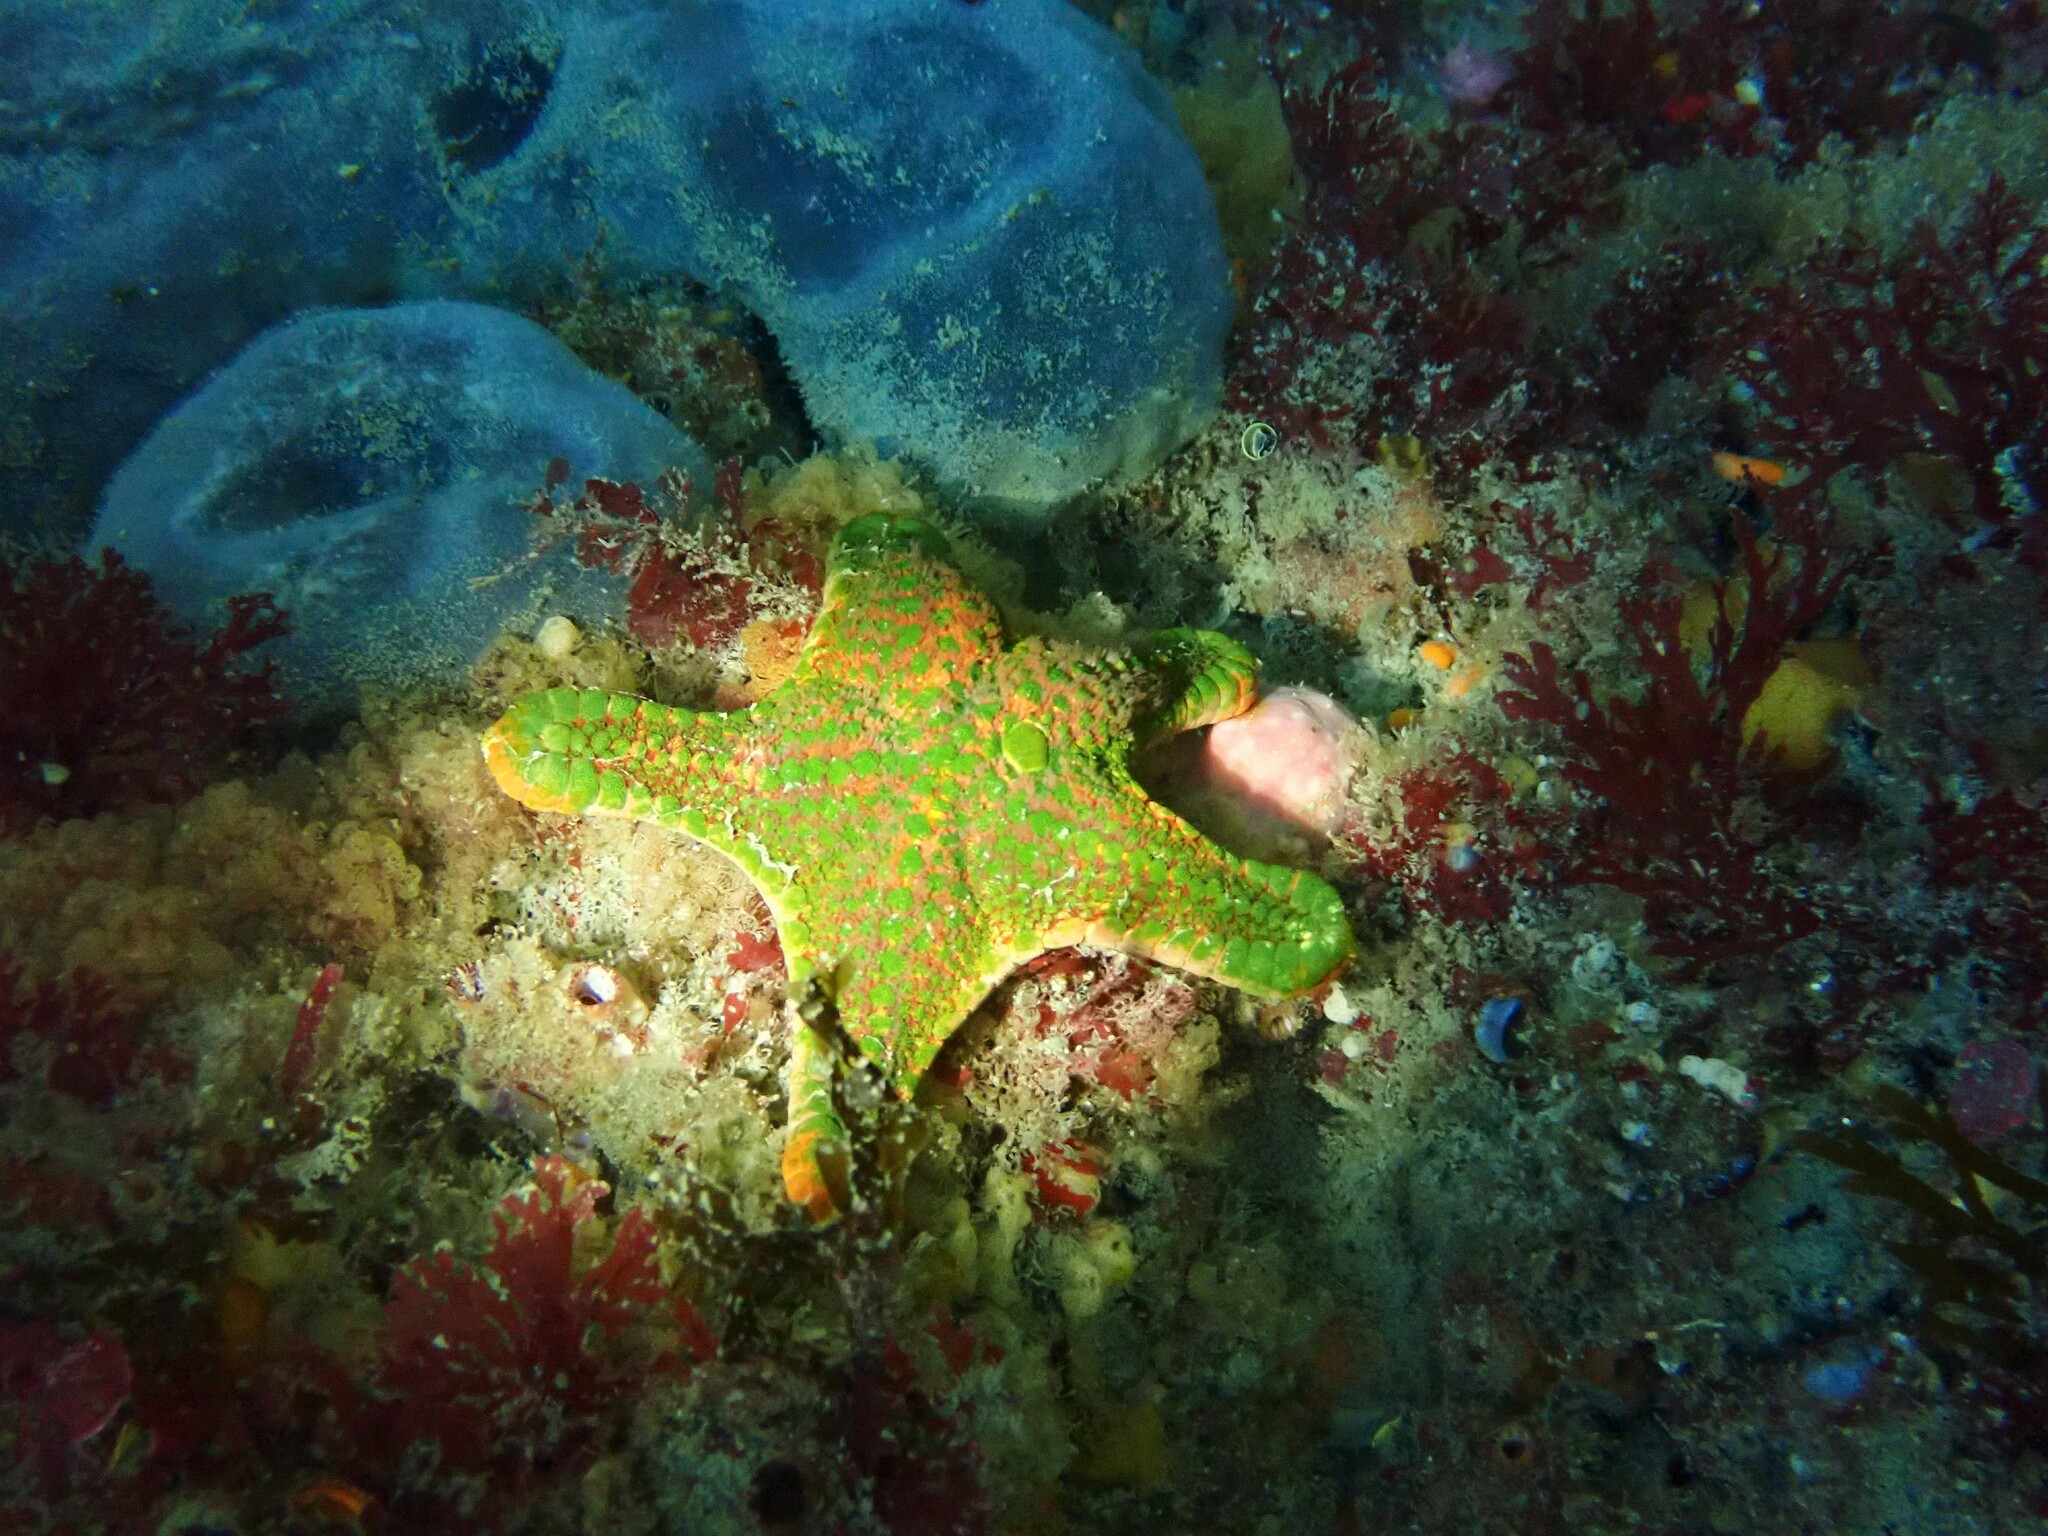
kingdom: Animalia
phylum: Echinodermata
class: Asteroidea
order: Valvatida
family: Odontasteridae
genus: Diplodontias
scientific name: Diplodontias dilatatus
